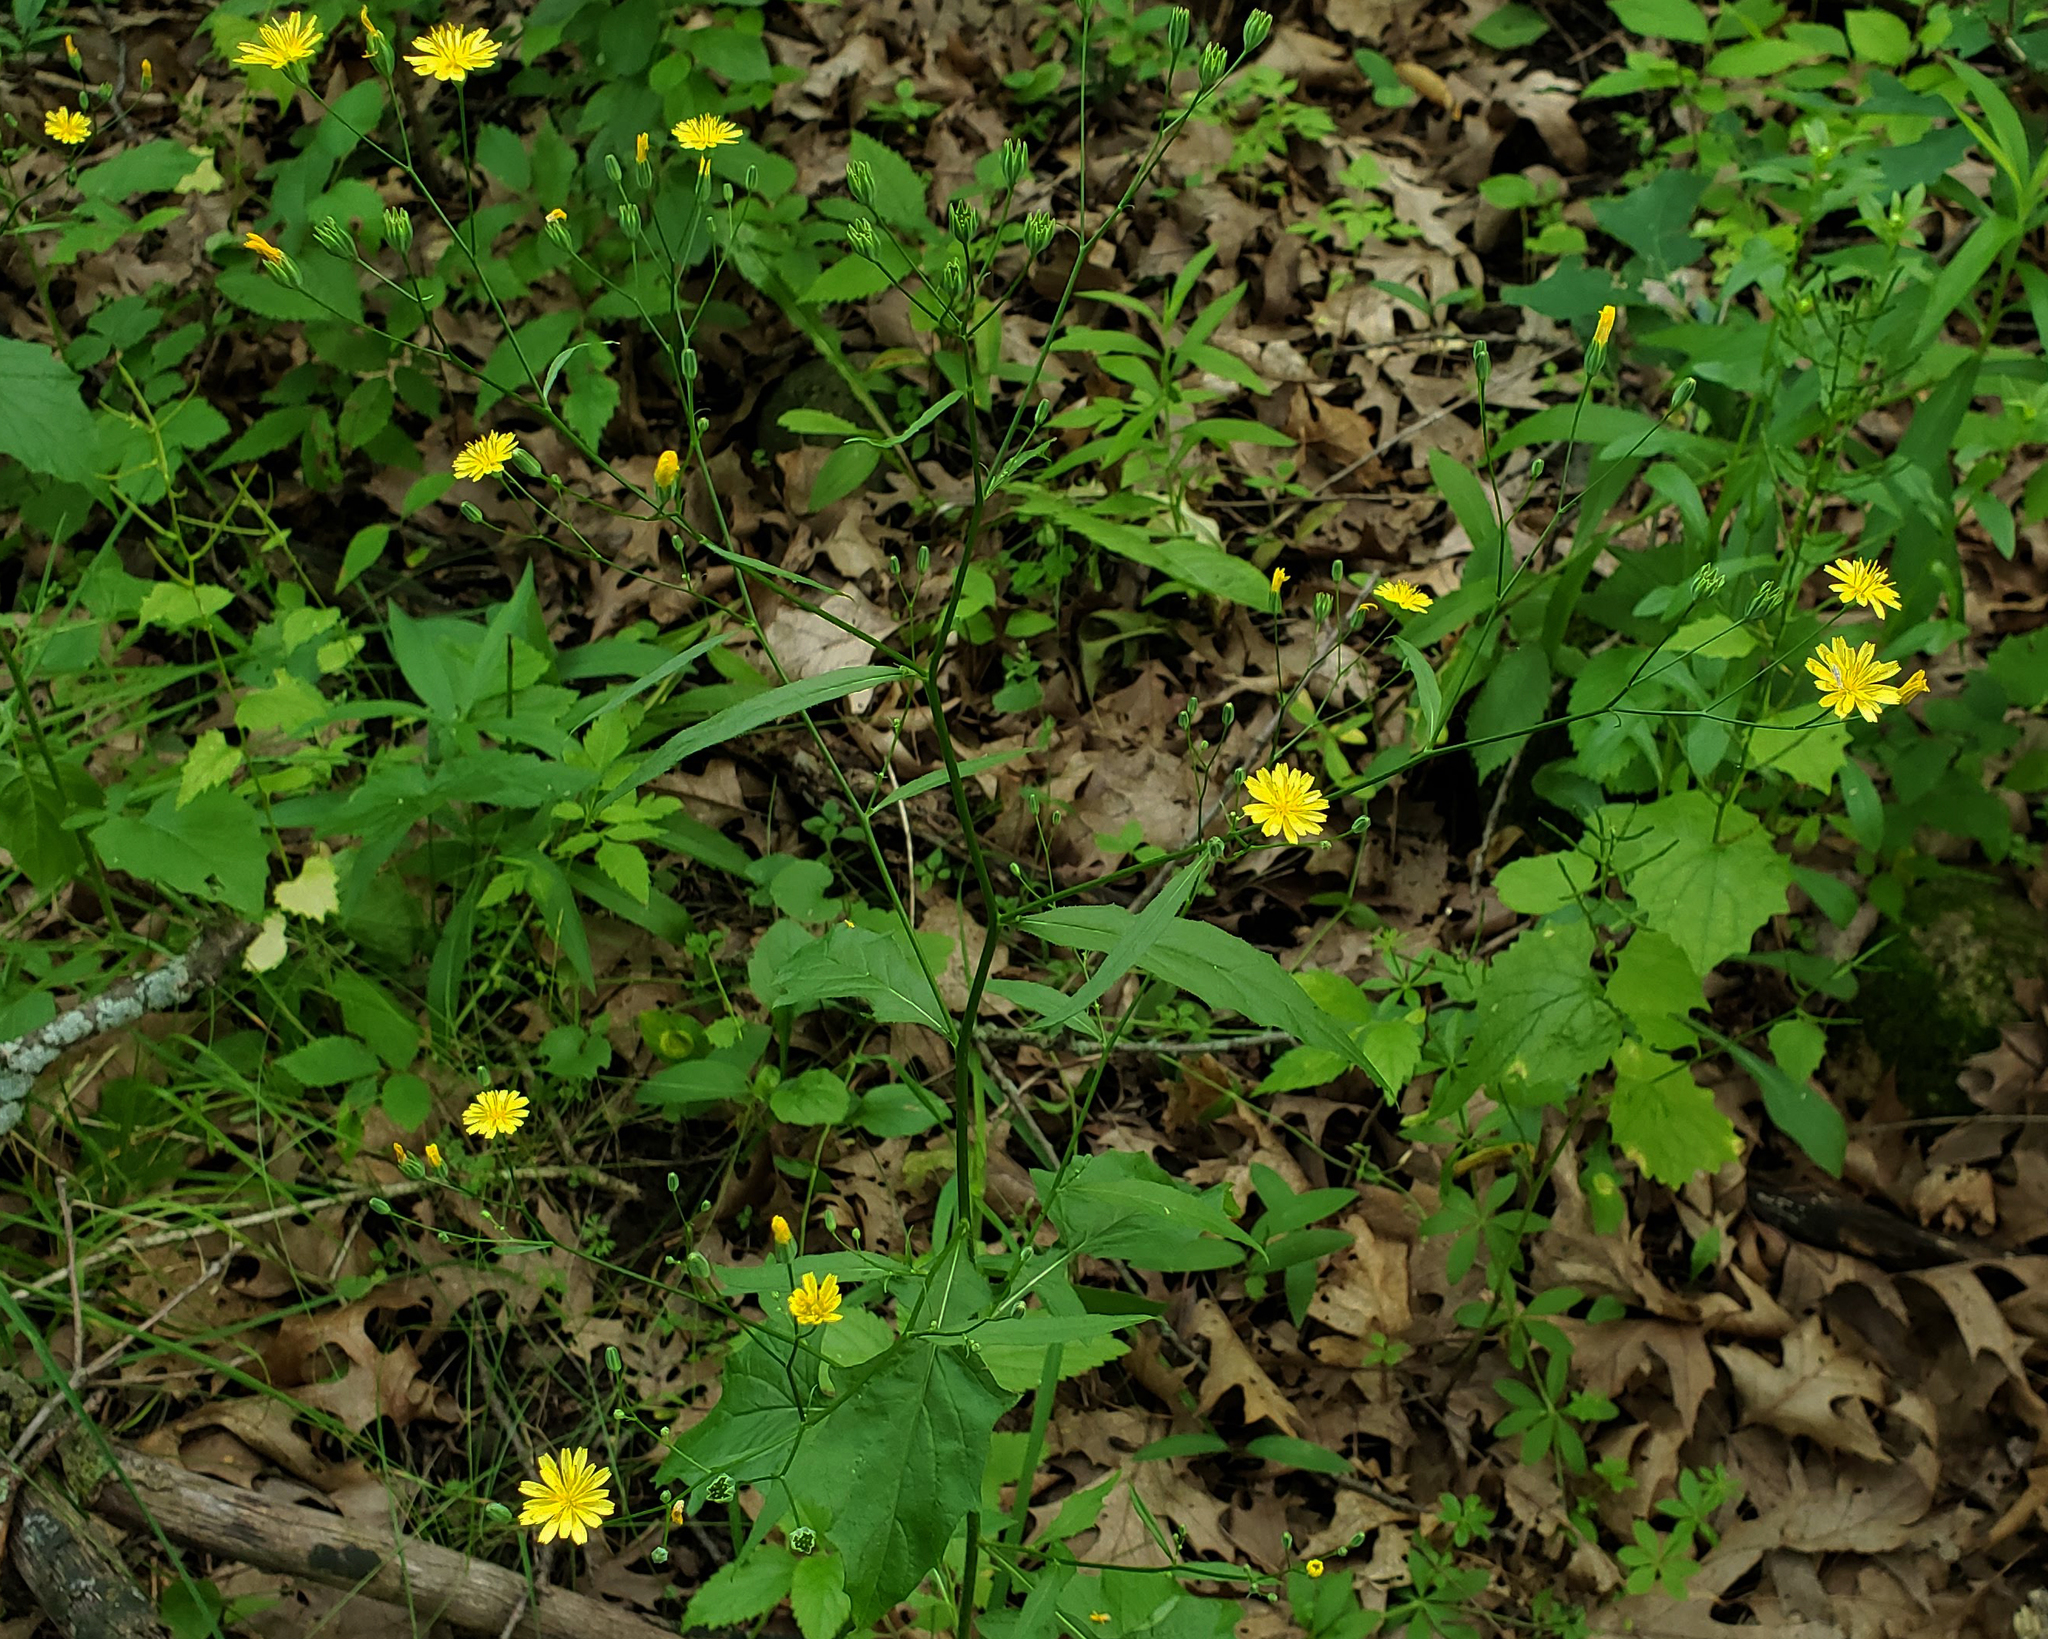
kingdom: Plantae
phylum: Tracheophyta
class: Magnoliopsida
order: Asterales
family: Asteraceae
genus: Lapsana
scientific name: Lapsana communis
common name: Nipplewort
